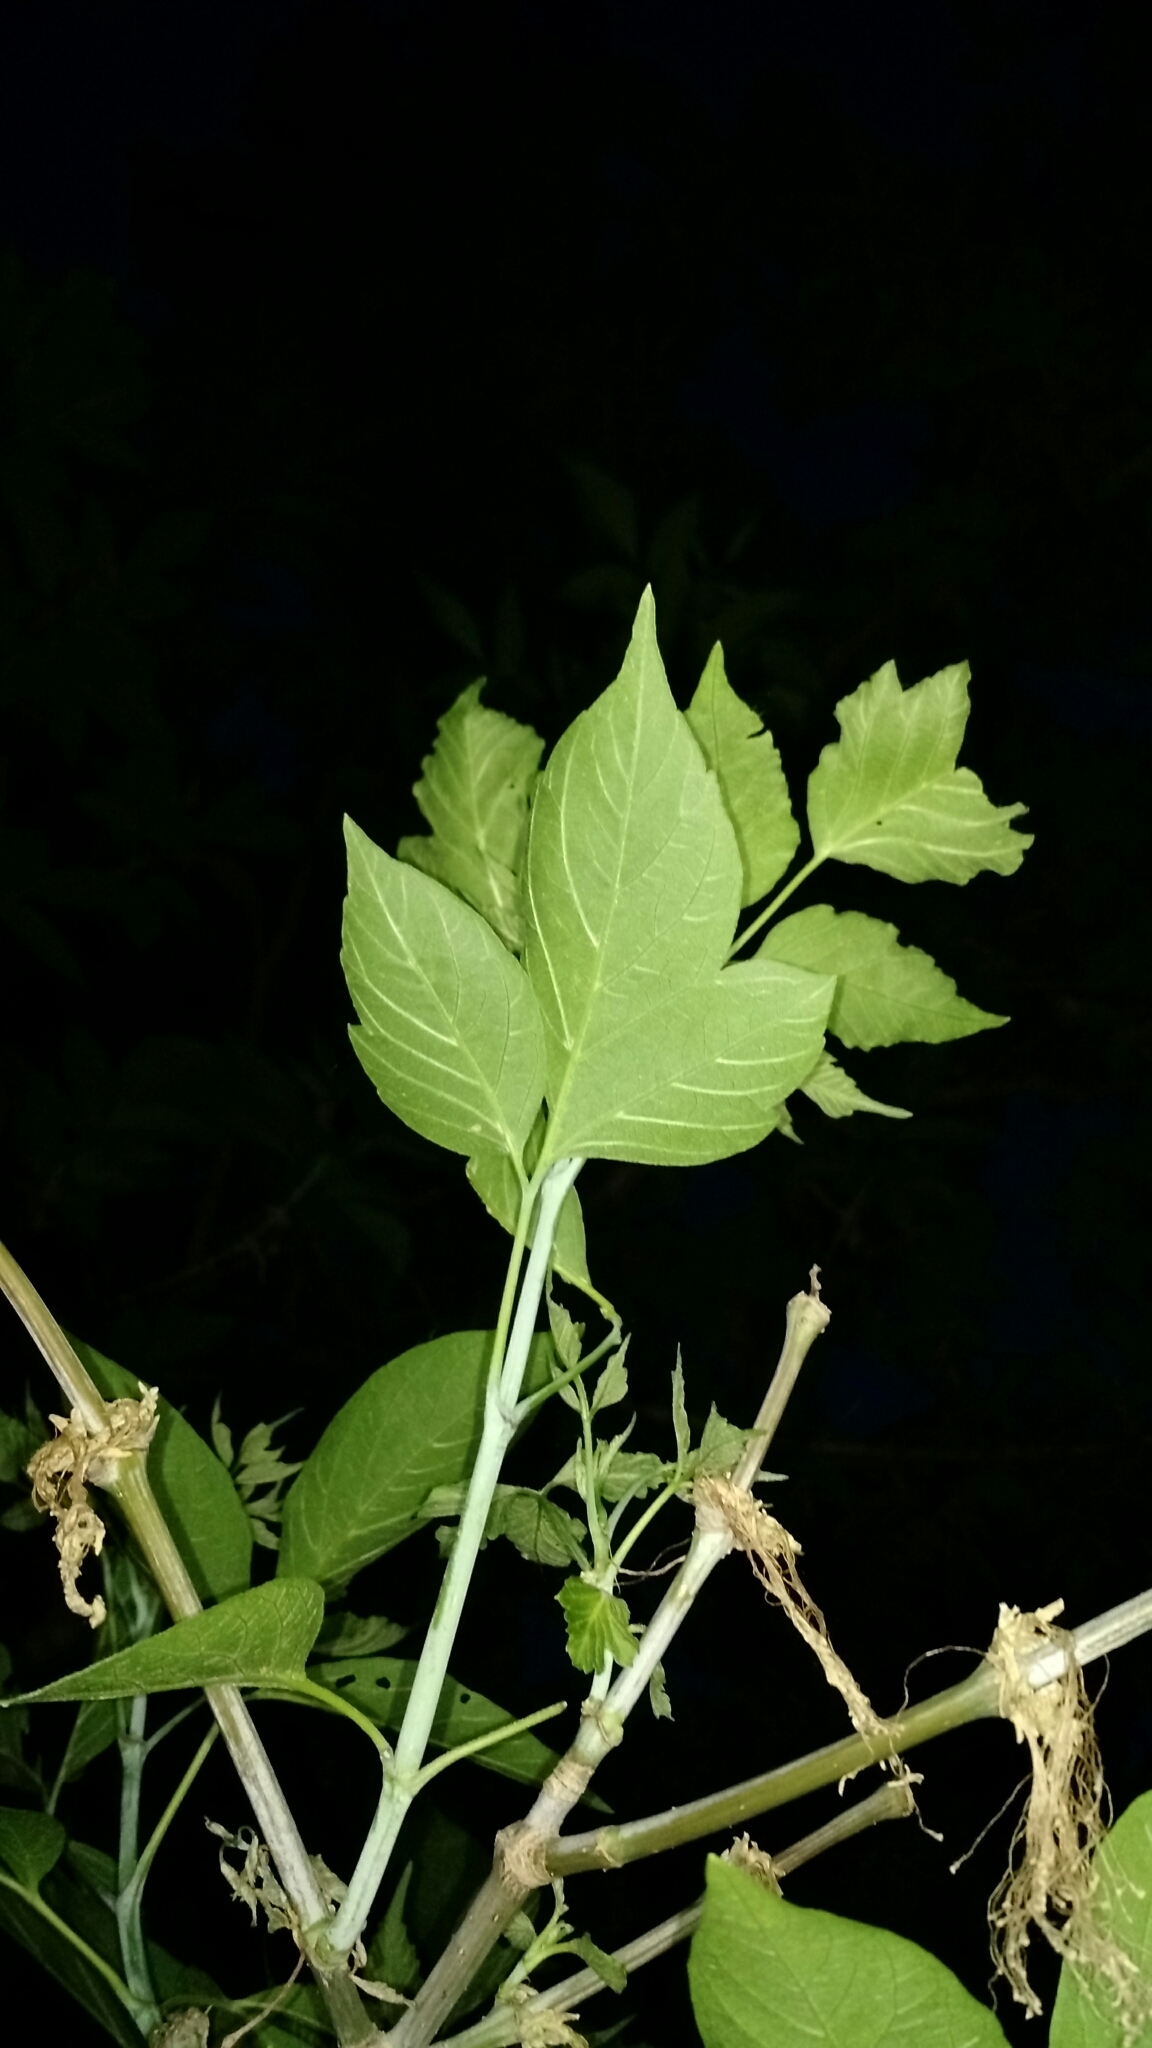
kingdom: Plantae
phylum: Tracheophyta
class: Magnoliopsida
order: Sapindales
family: Sapindaceae
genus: Acer
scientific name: Acer negundo
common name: Ashleaf maple
